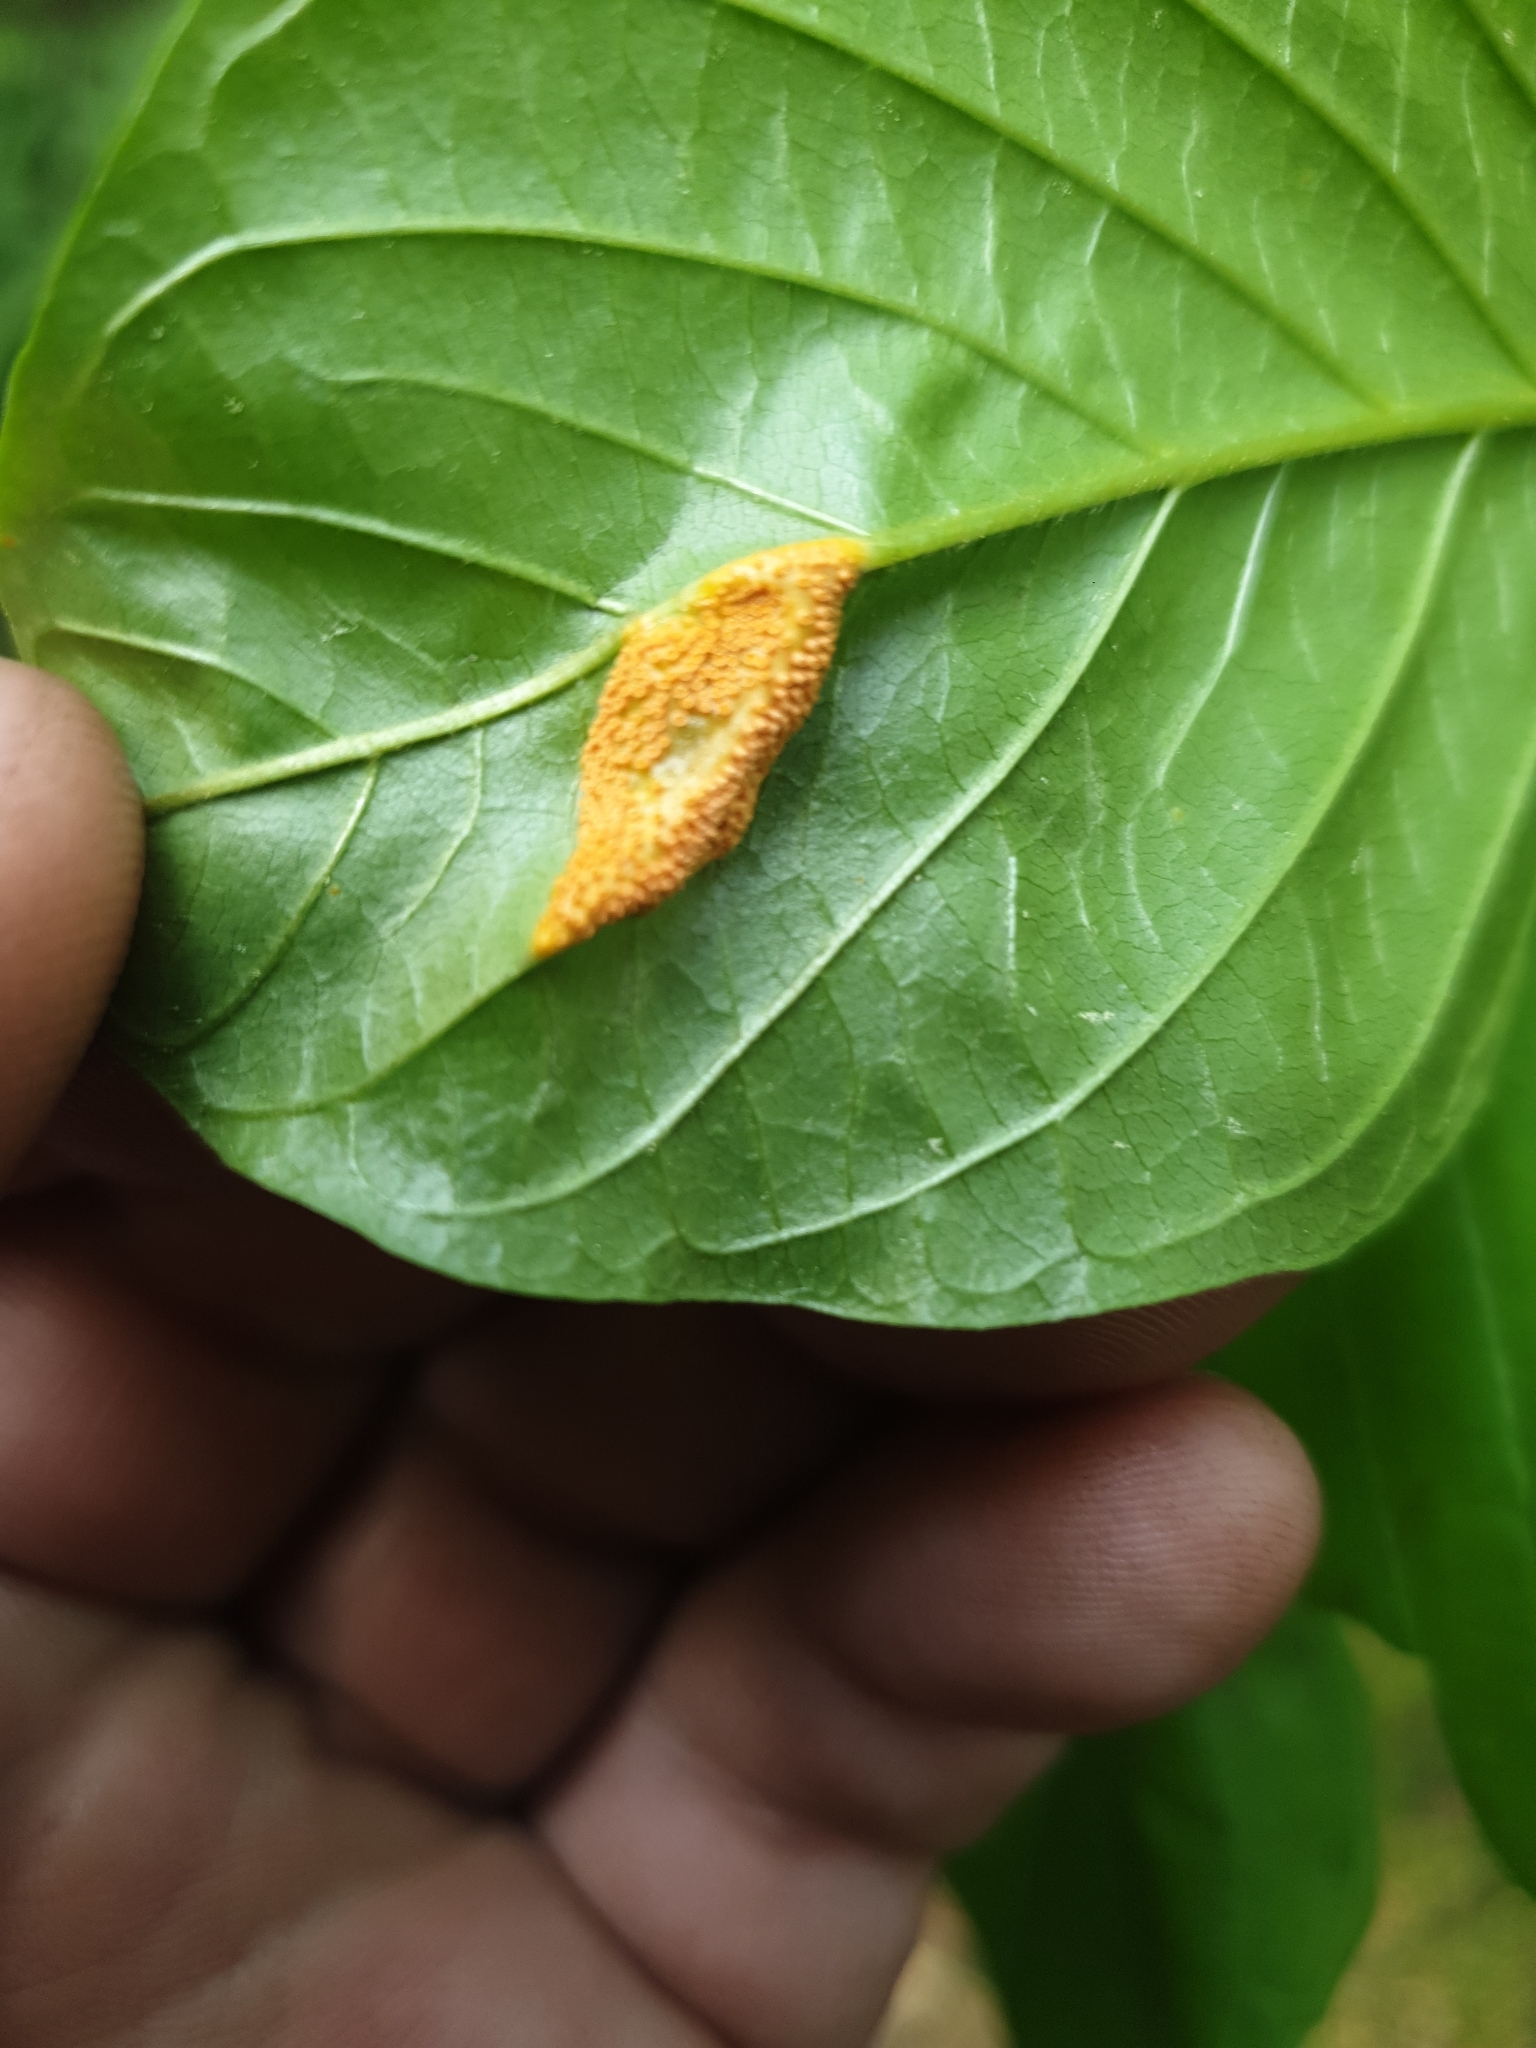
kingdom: Fungi
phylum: Basidiomycota
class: Pucciniomycetes
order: Pucciniales
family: Pucciniaceae
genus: Puccinia
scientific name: Puccinia coronata
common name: Crown rust
